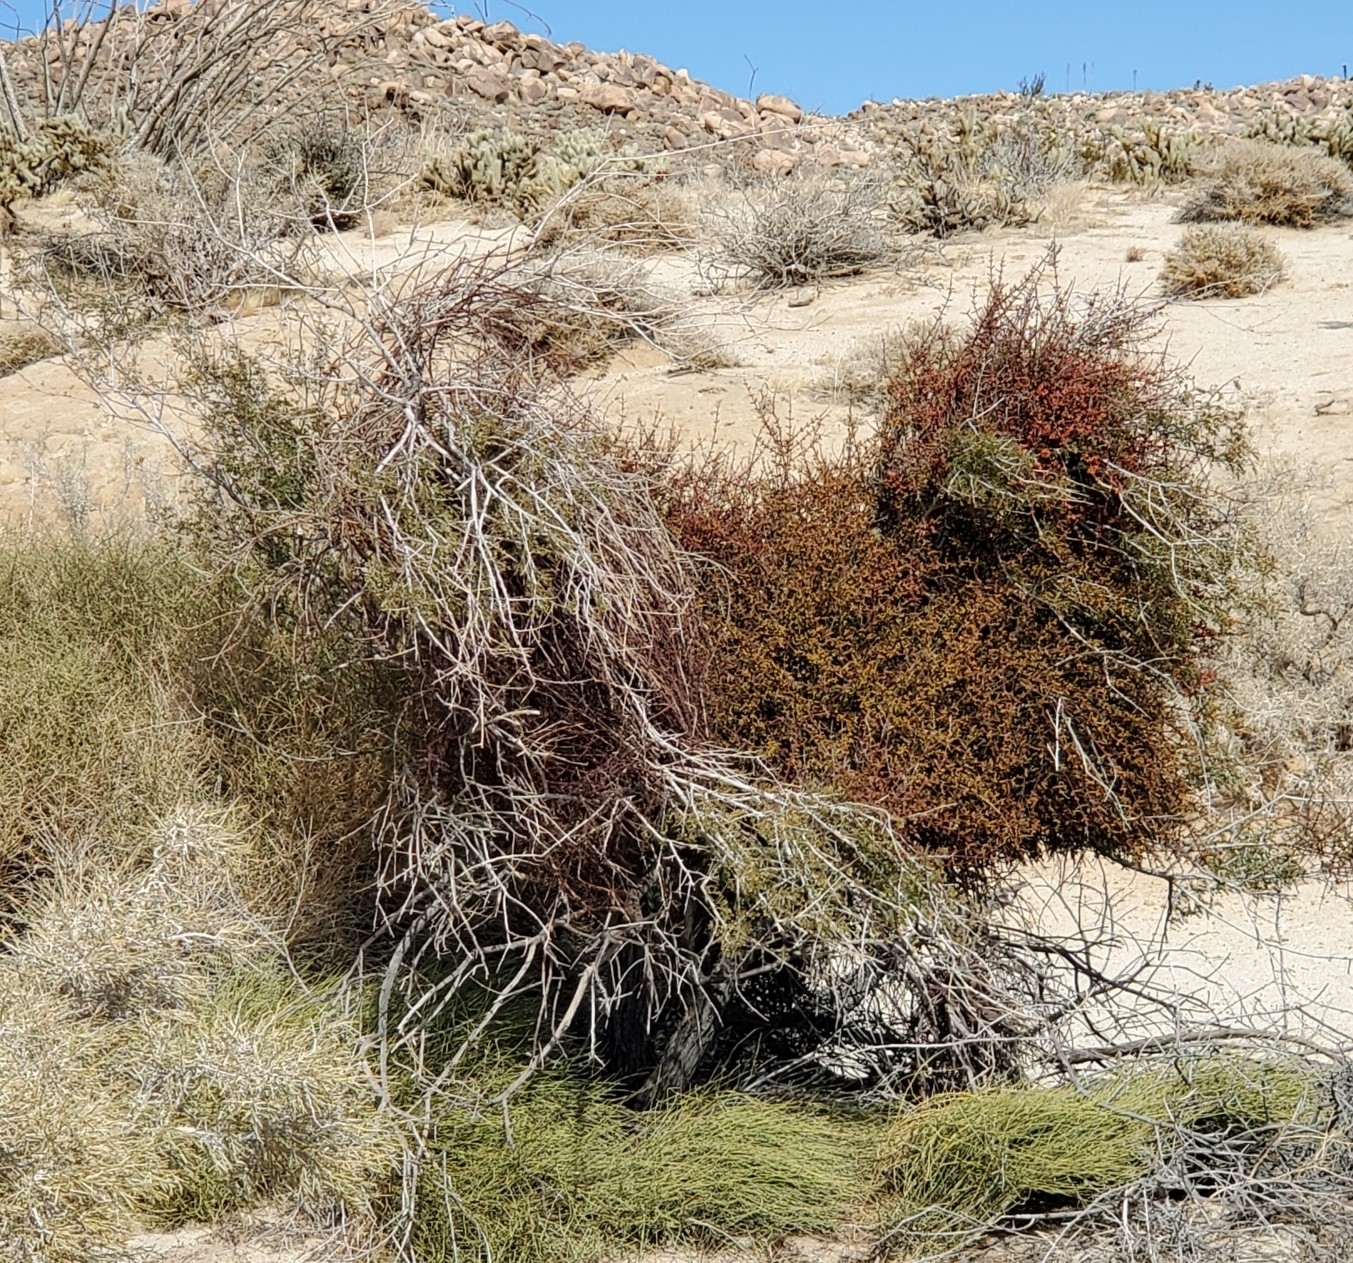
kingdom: Plantae
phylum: Tracheophyta
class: Magnoliopsida
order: Fabales
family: Fabaceae
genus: Senegalia
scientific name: Senegalia greggii
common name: Texas-mimosa
